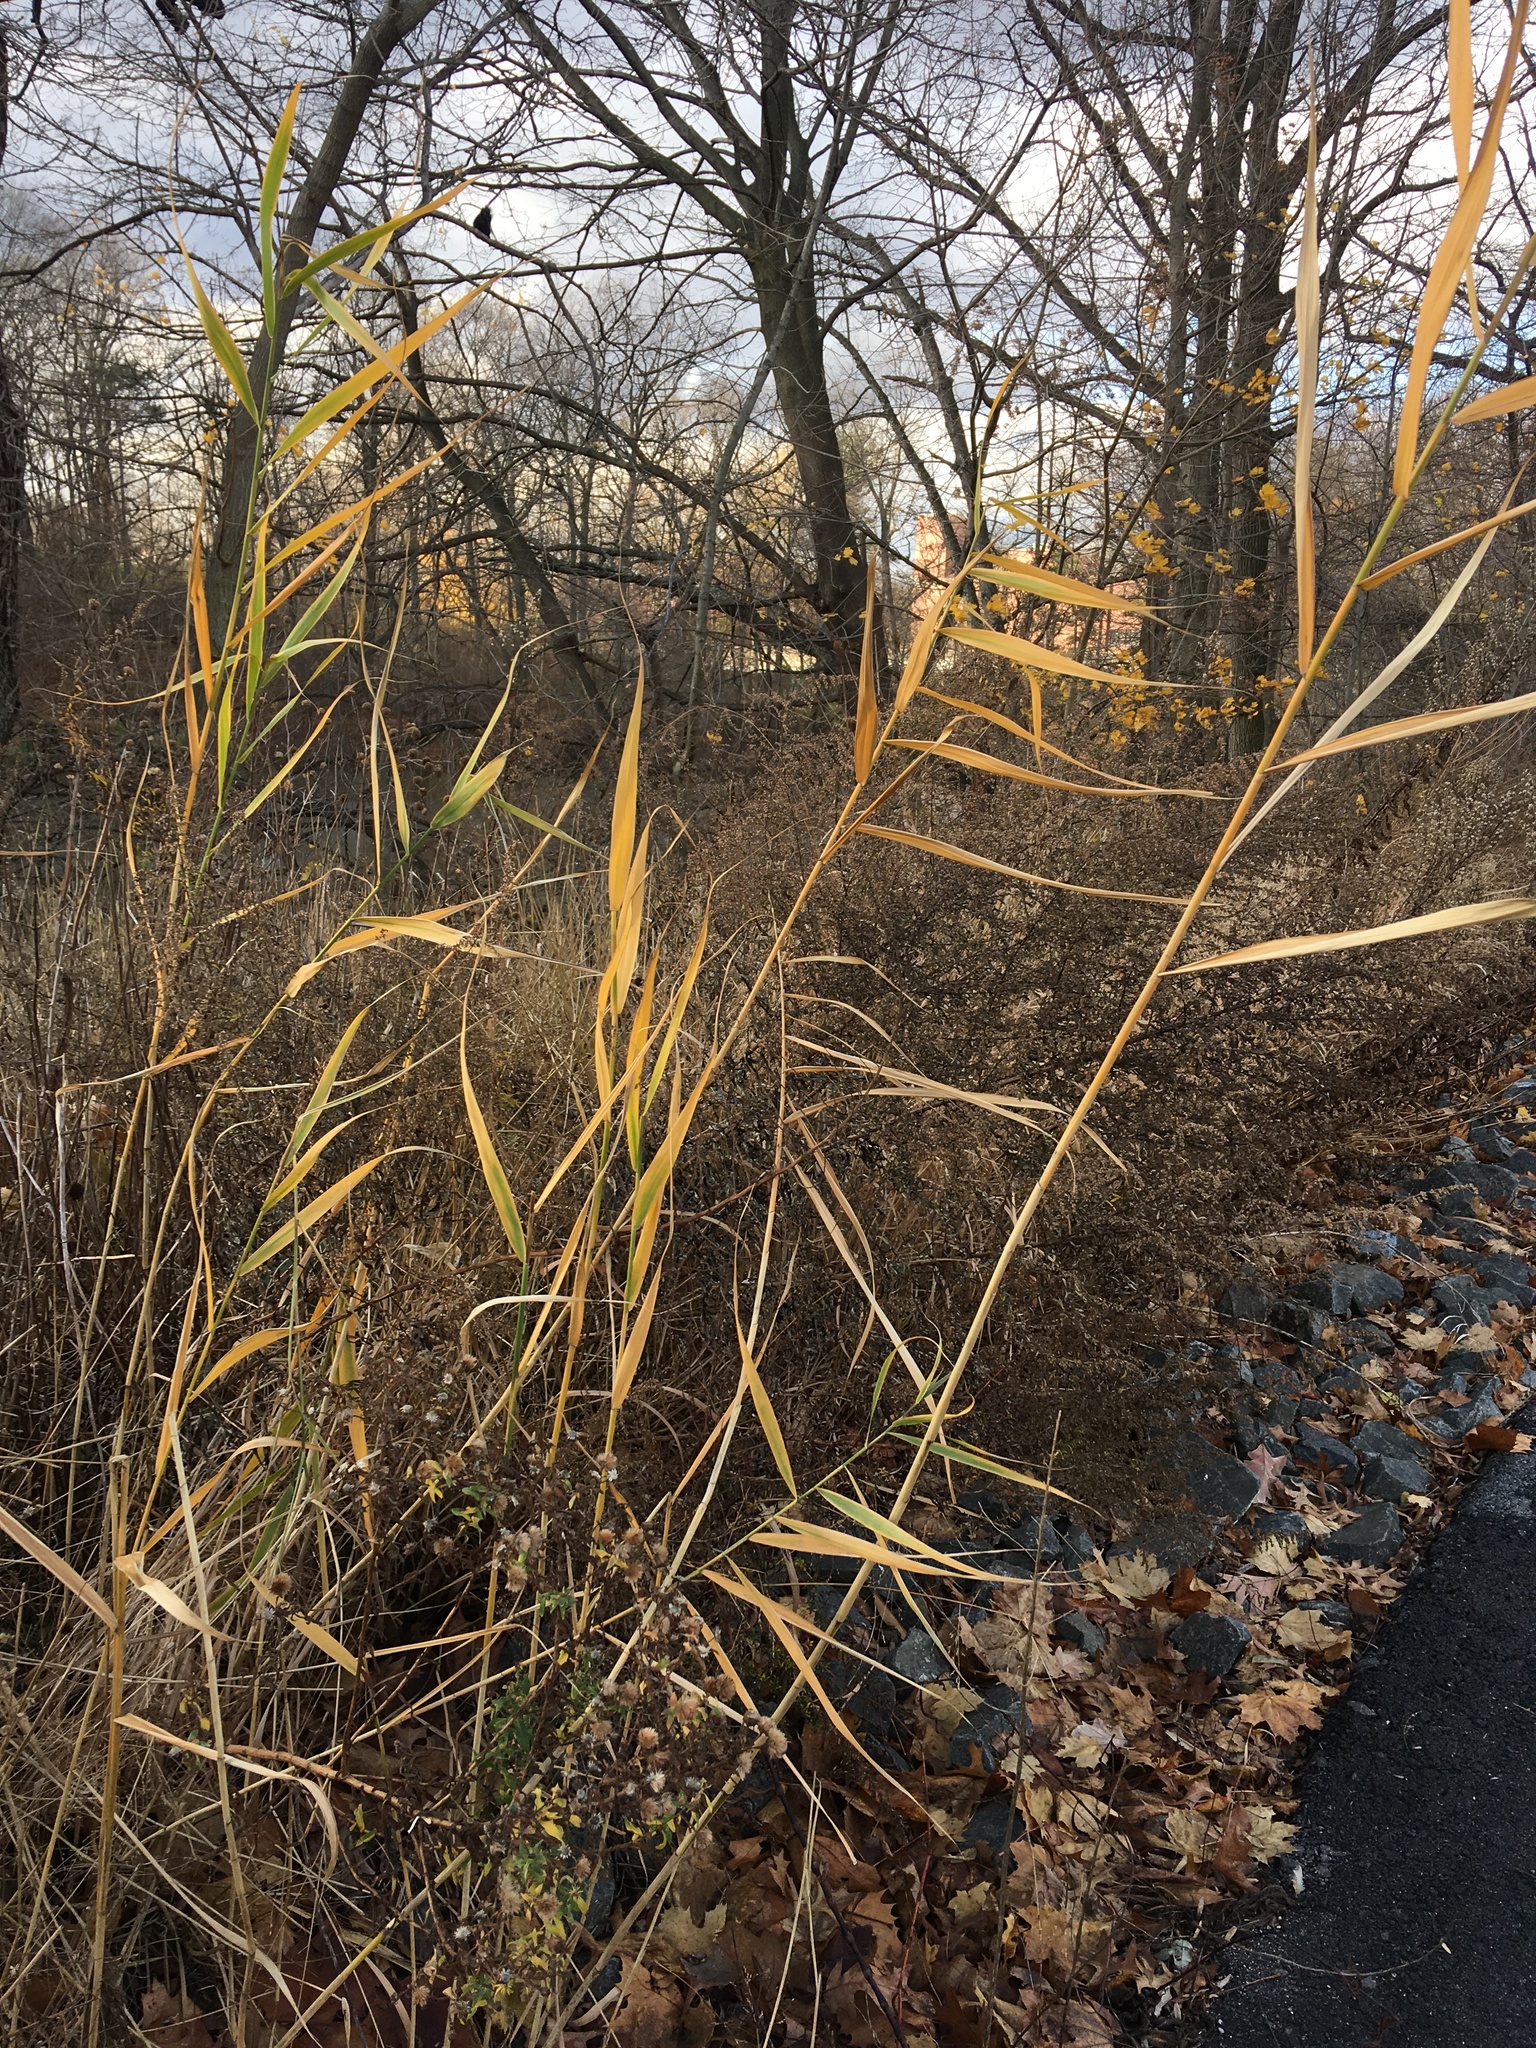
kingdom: Plantae
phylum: Tracheophyta
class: Liliopsida
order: Poales
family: Poaceae
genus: Phragmites
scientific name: Phragmites australis
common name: Common reed
